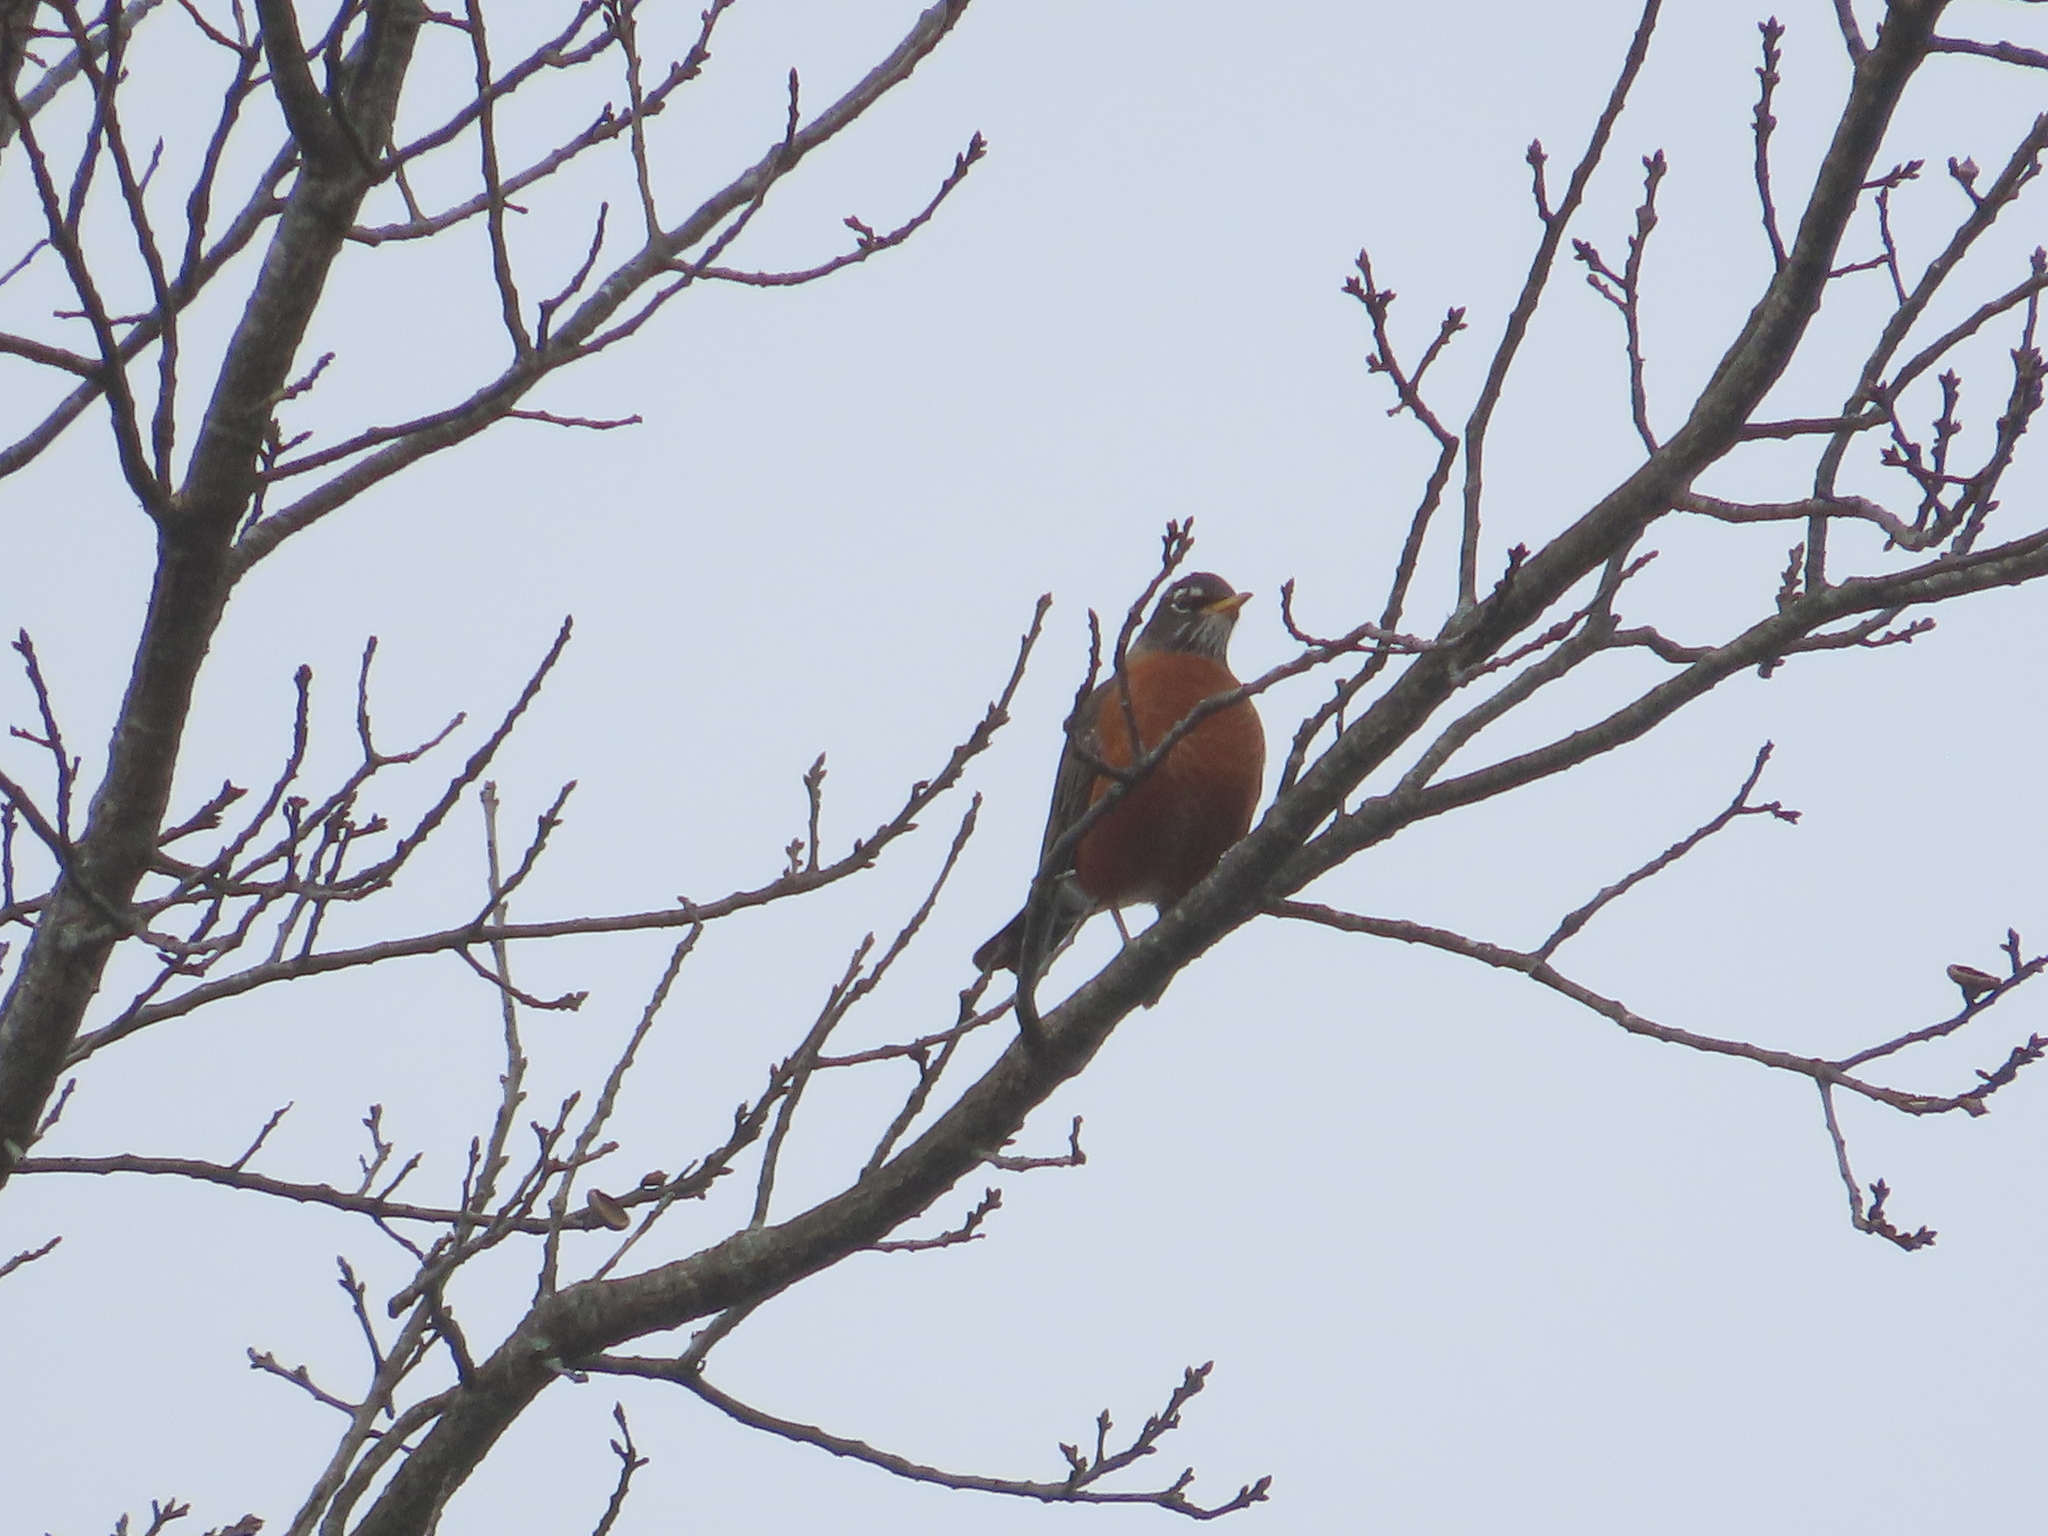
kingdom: Animalia
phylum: Chordata
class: Aves
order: Passeriformes
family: Turdidae
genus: Turdus
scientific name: Turdus migratorius
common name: American robin
